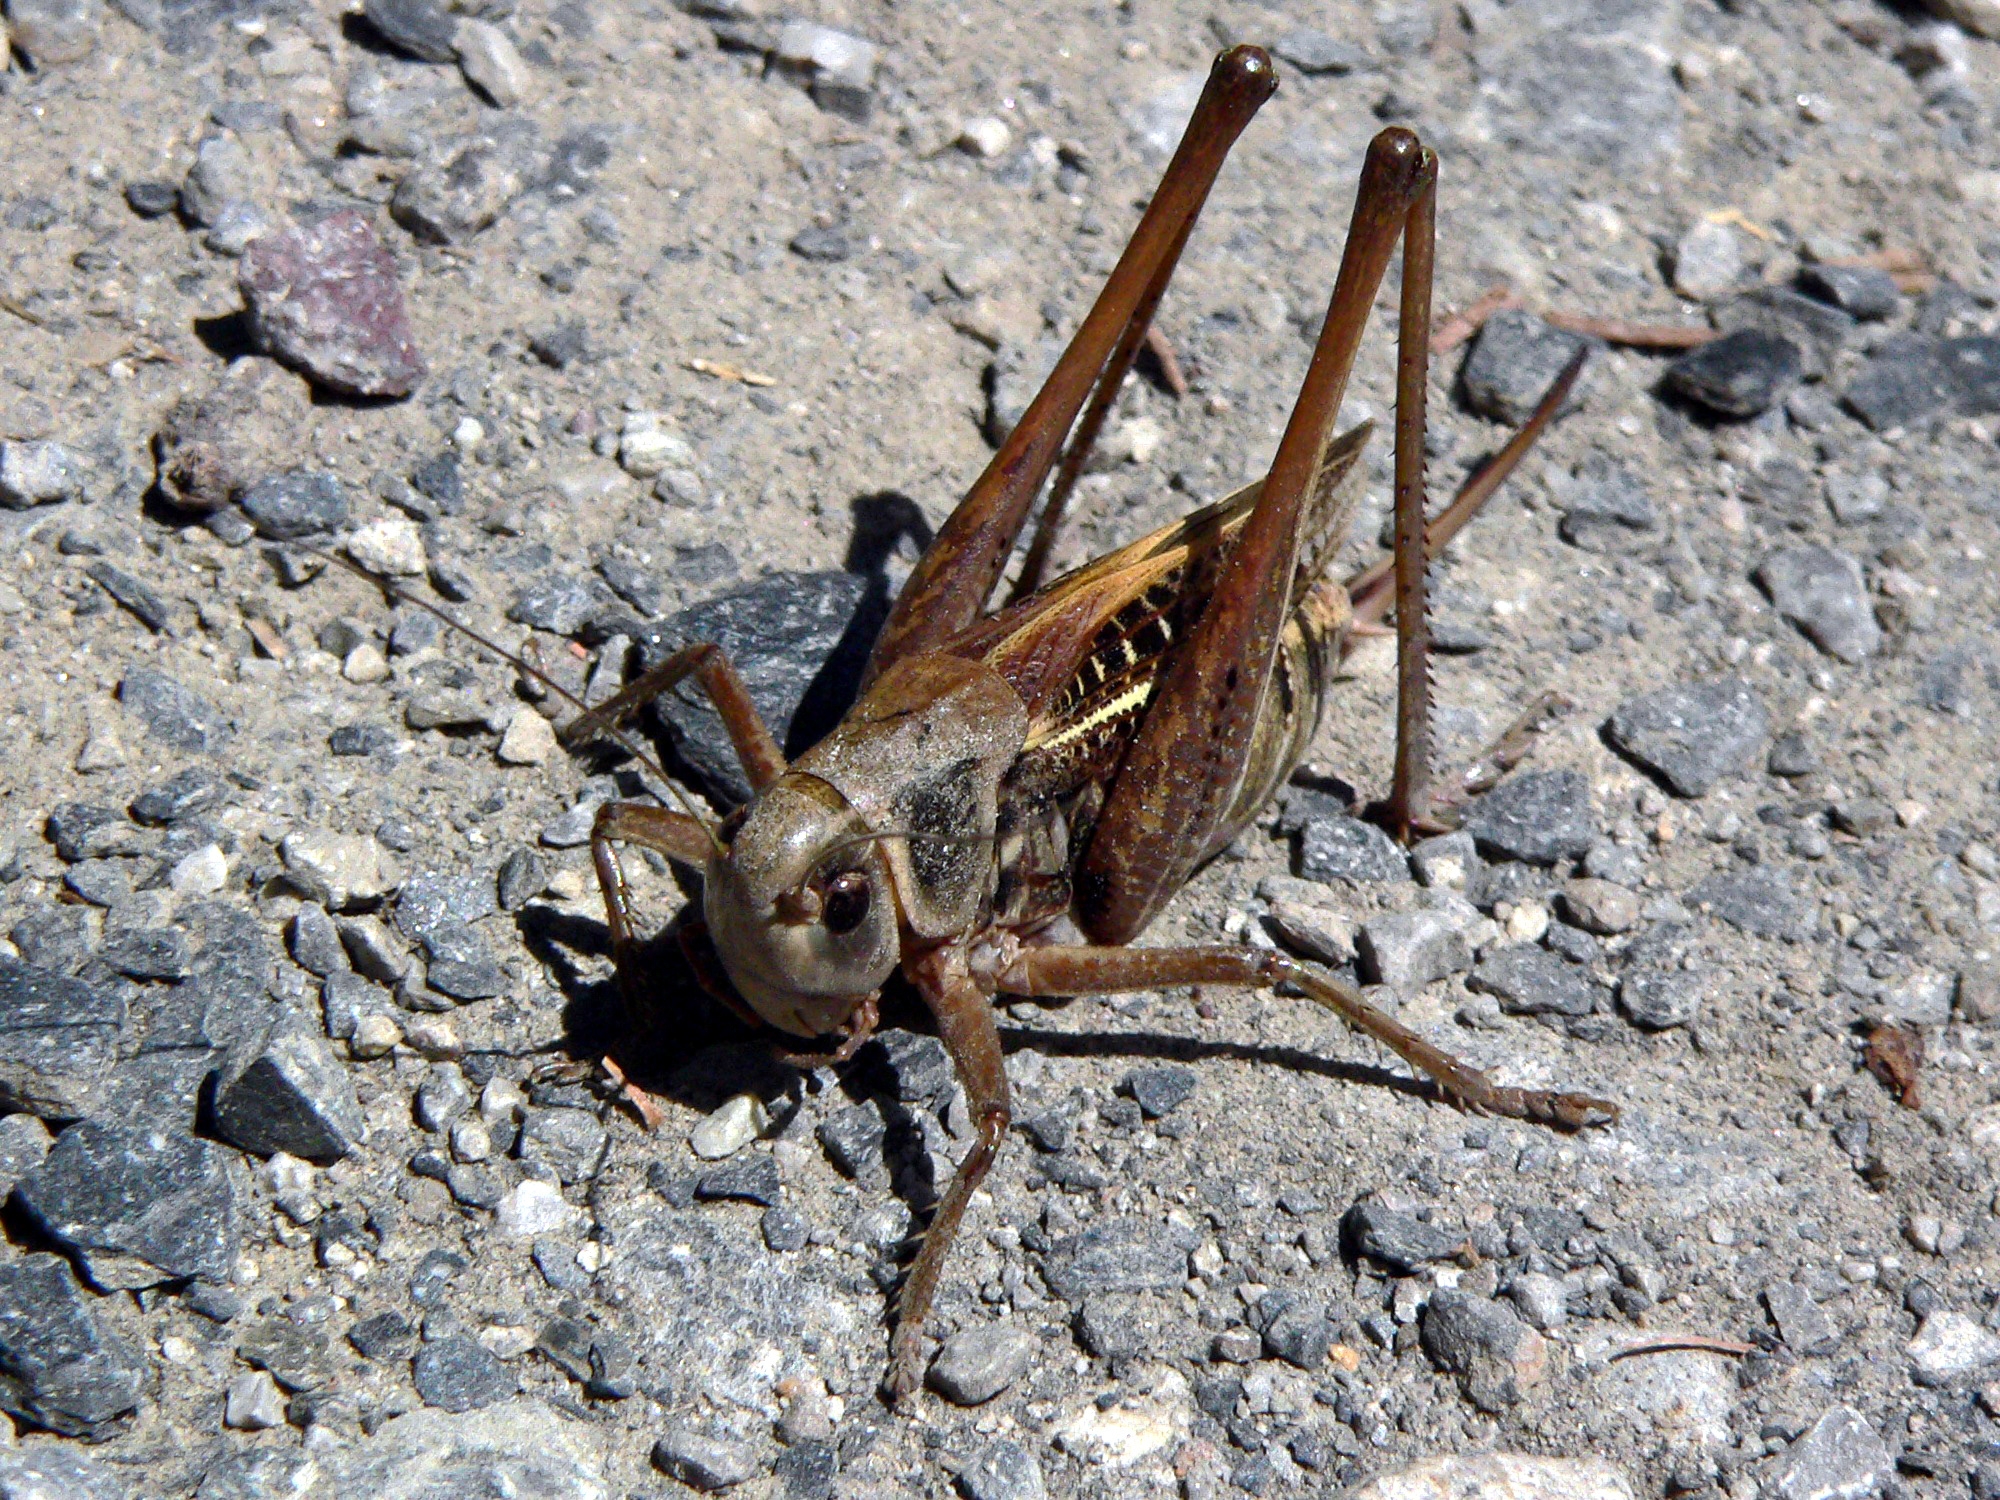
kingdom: Animalia
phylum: Arthropoda
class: Insecta
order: Orthoptera
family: Tettigoniidae
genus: Decticus
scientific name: Decticus verrucivorus
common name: Wart-biter
